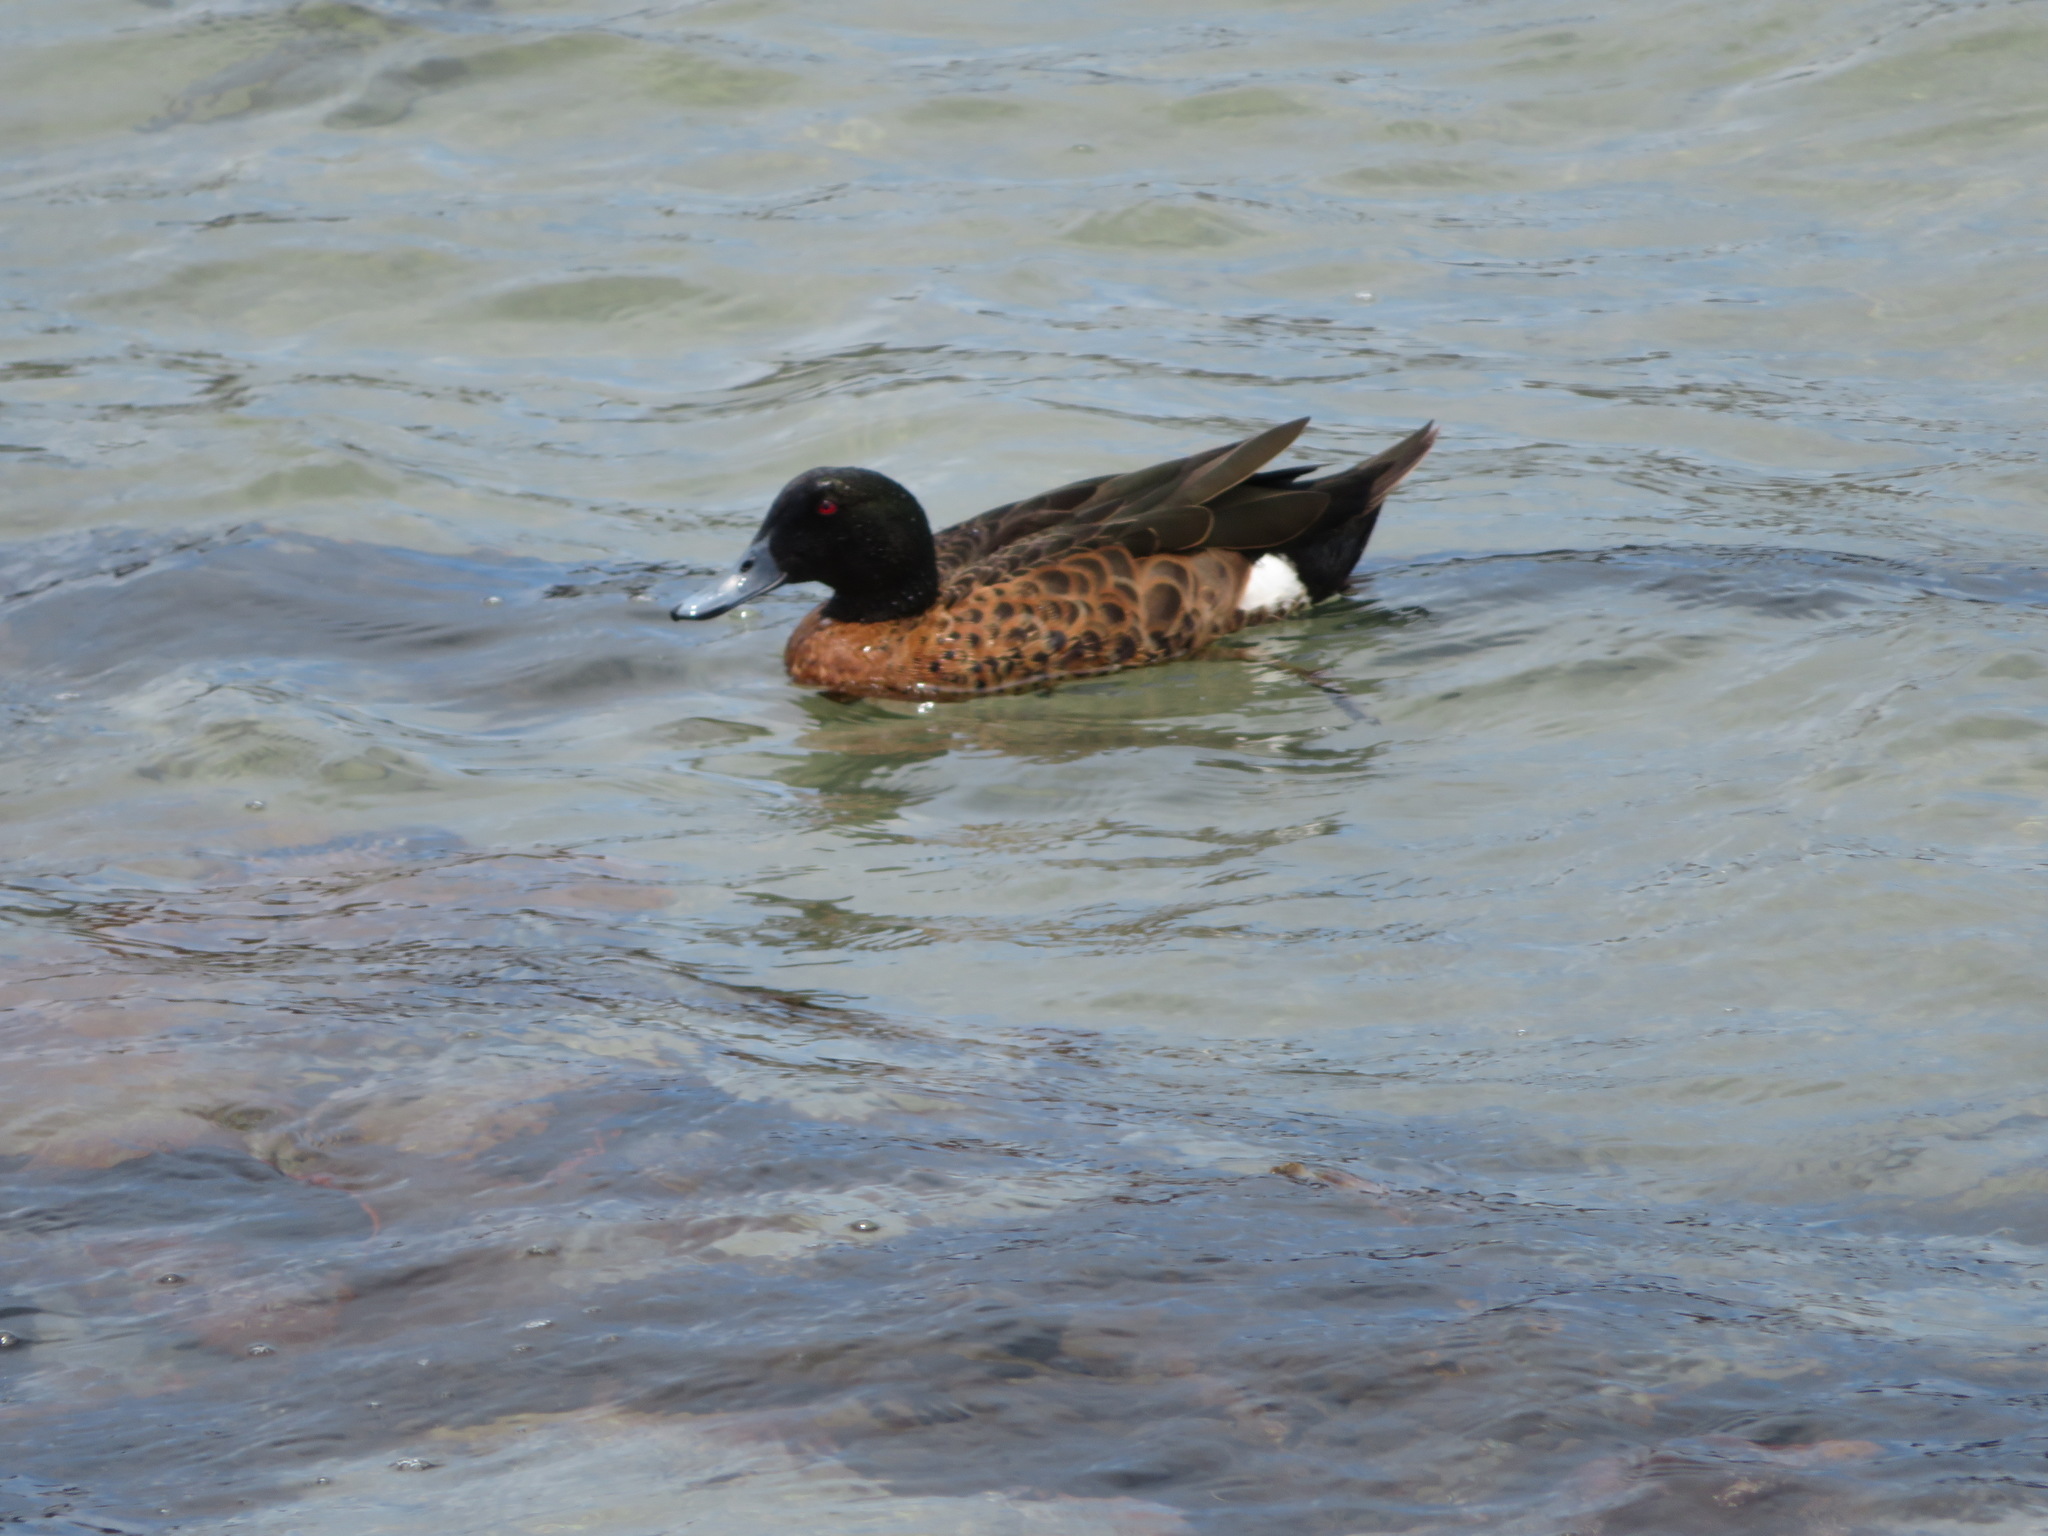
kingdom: Animalia
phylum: Chordata
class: Aves
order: Anseriformes
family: Anatidae
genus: Anas
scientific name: Anas castanea
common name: Chestnut teal
